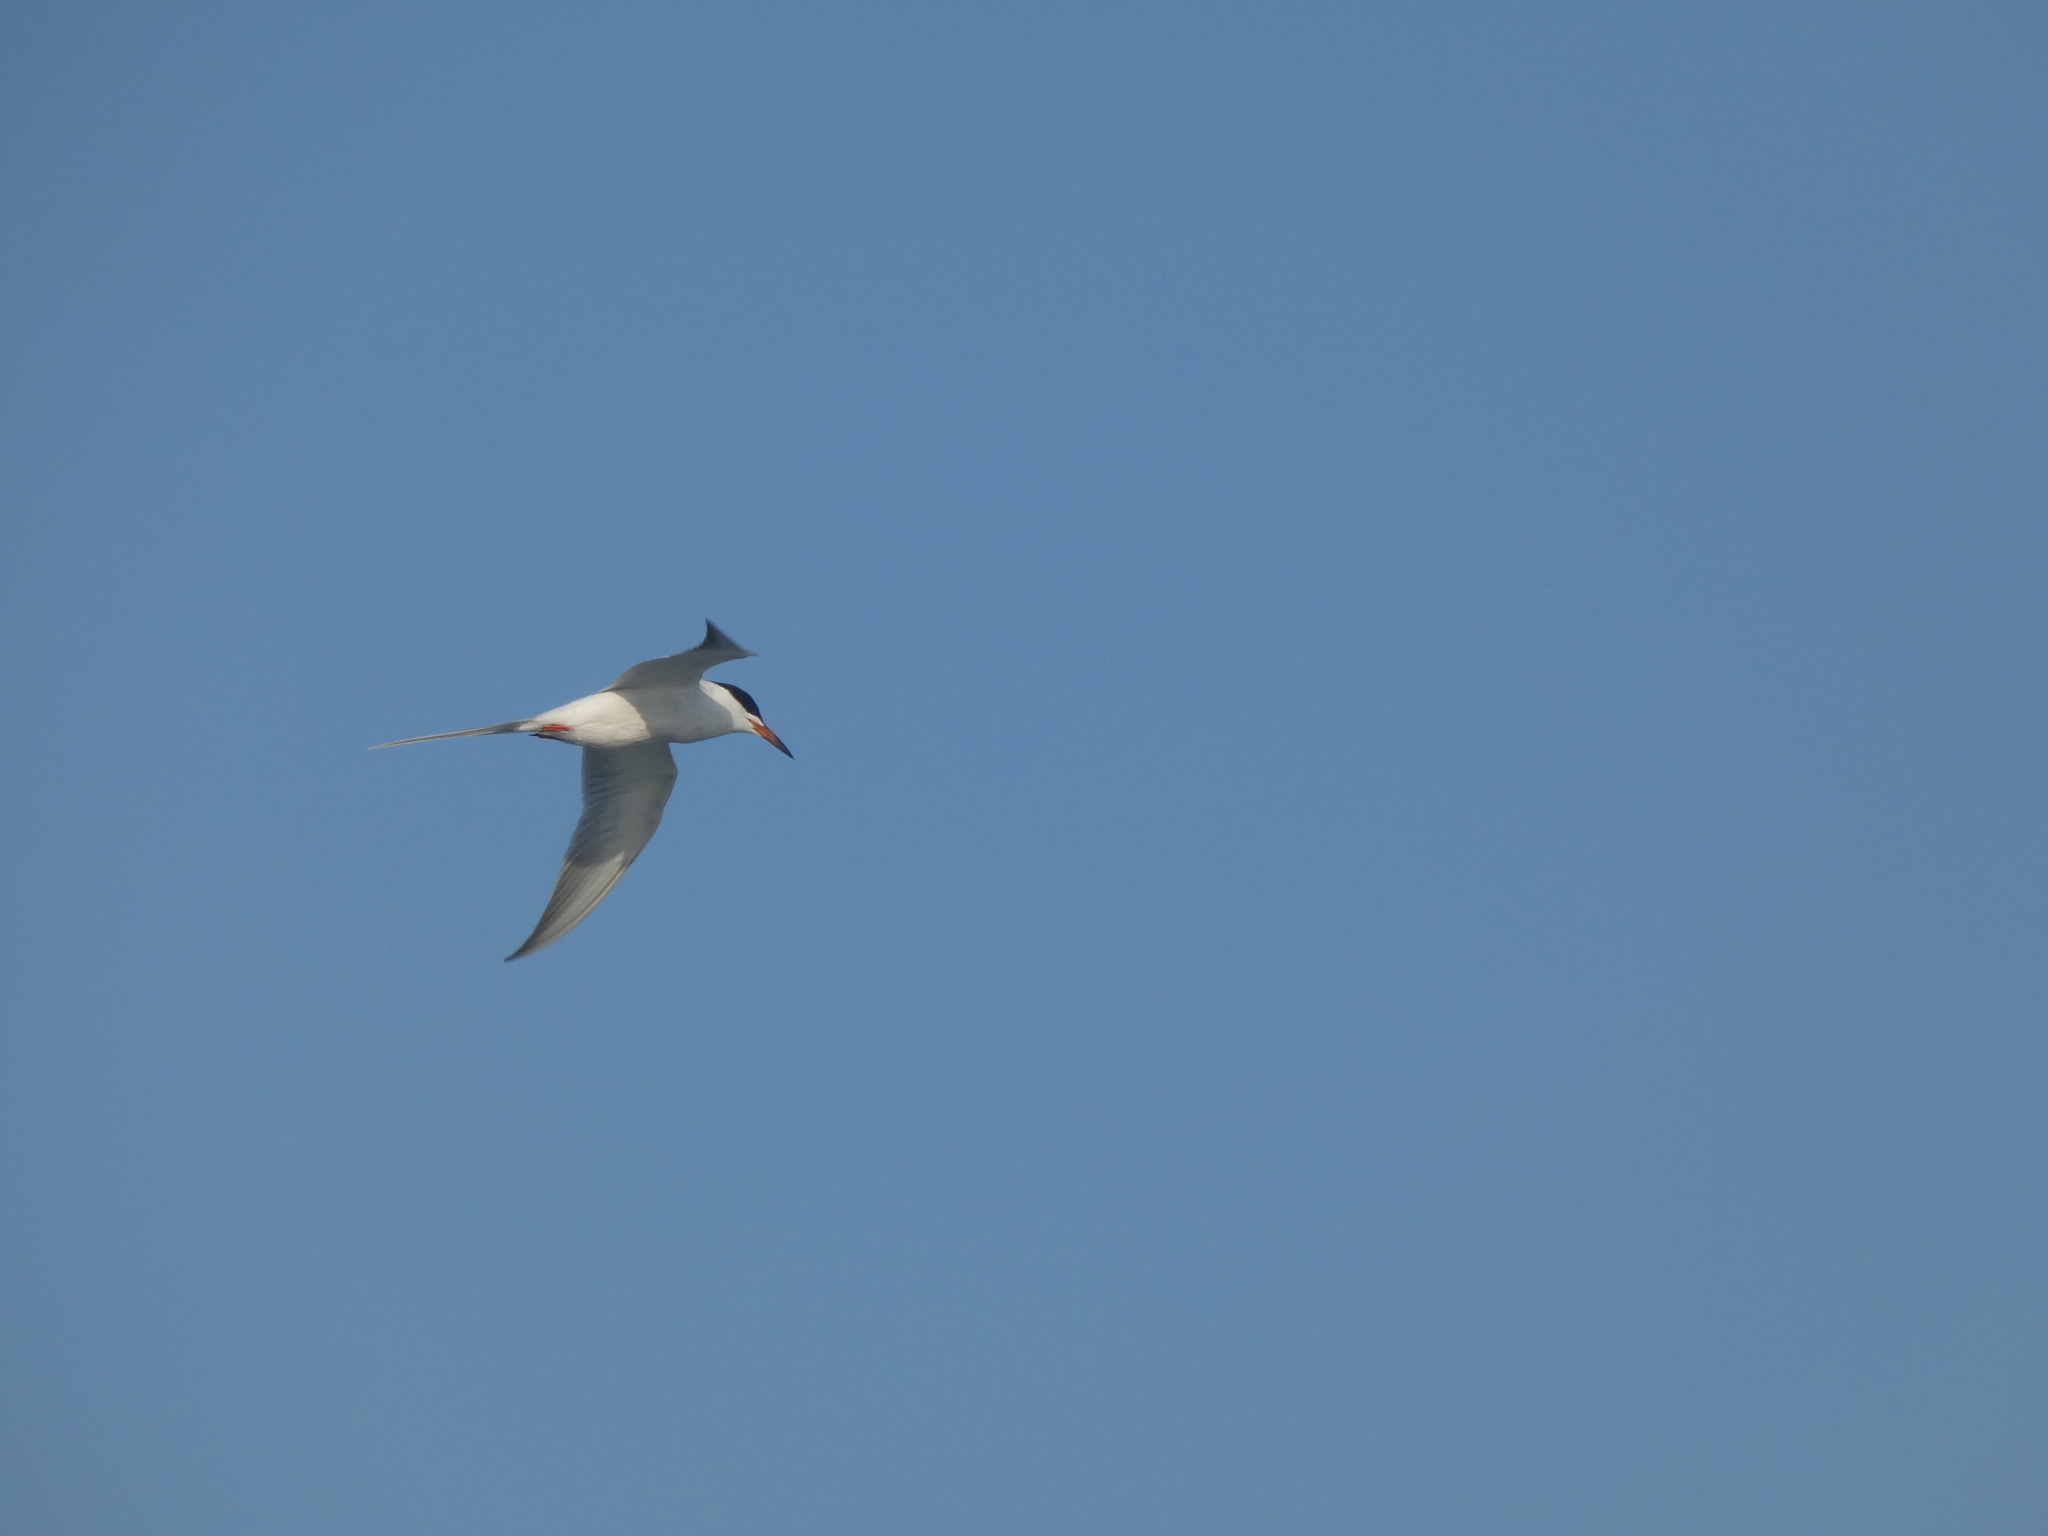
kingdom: Animalia
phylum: Chordata
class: Aves
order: Charadriiformes
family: Laridae
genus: Sterna
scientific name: Sterna forsteri
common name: Forster's tern
